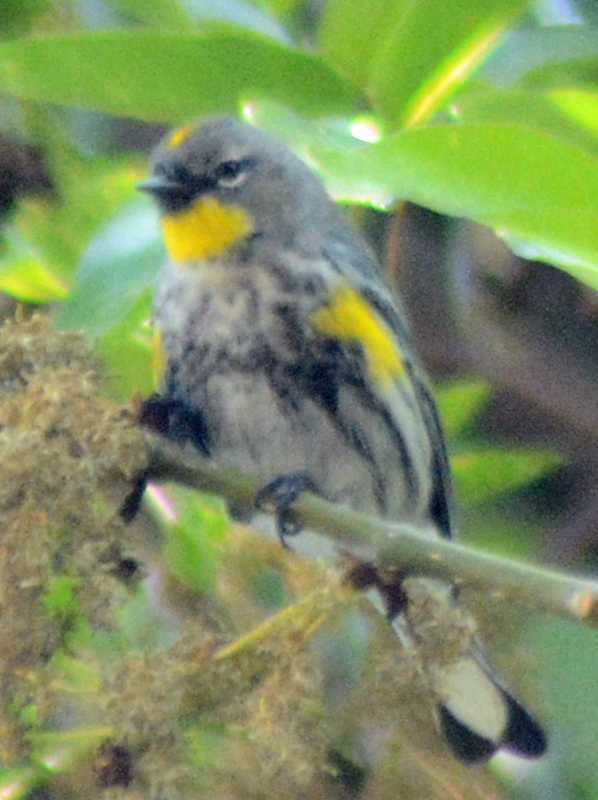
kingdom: Animalia
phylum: Chordata
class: Aves
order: Passeriformes
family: Parulidae
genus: Setophaga
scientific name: Setophaga coronata
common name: Myrtle warbler
